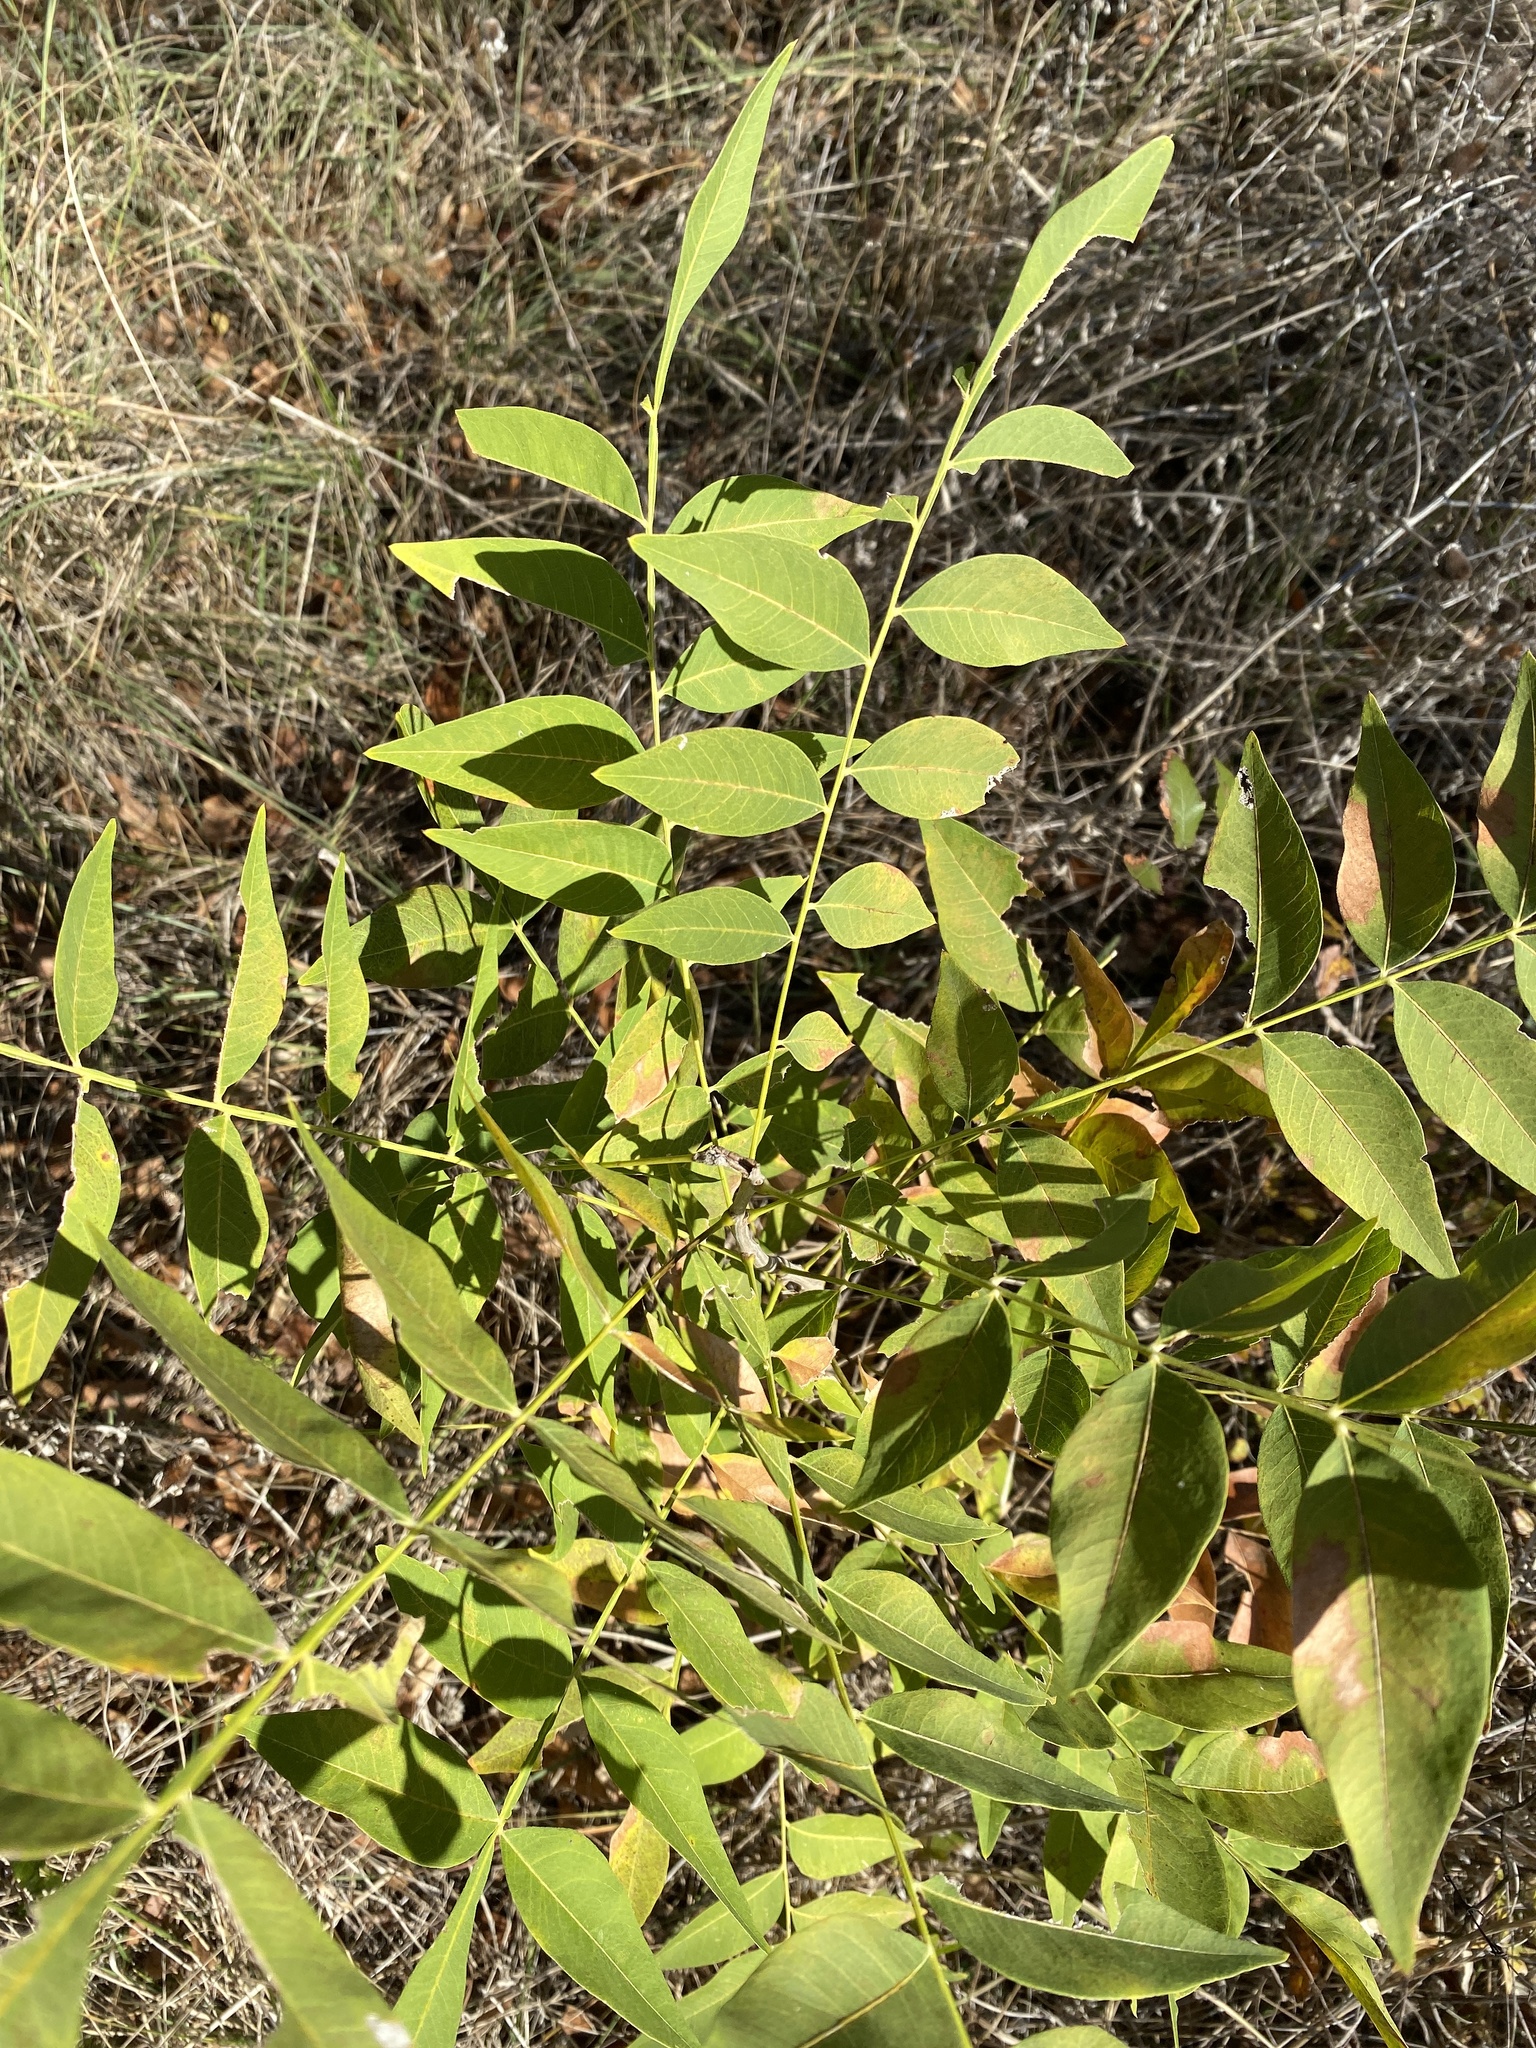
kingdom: Plantae
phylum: Tracheophyta
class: Magnoliopsida
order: Sapindales
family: Sapindaceae
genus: Sapindus
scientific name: Sapindus drummondii
